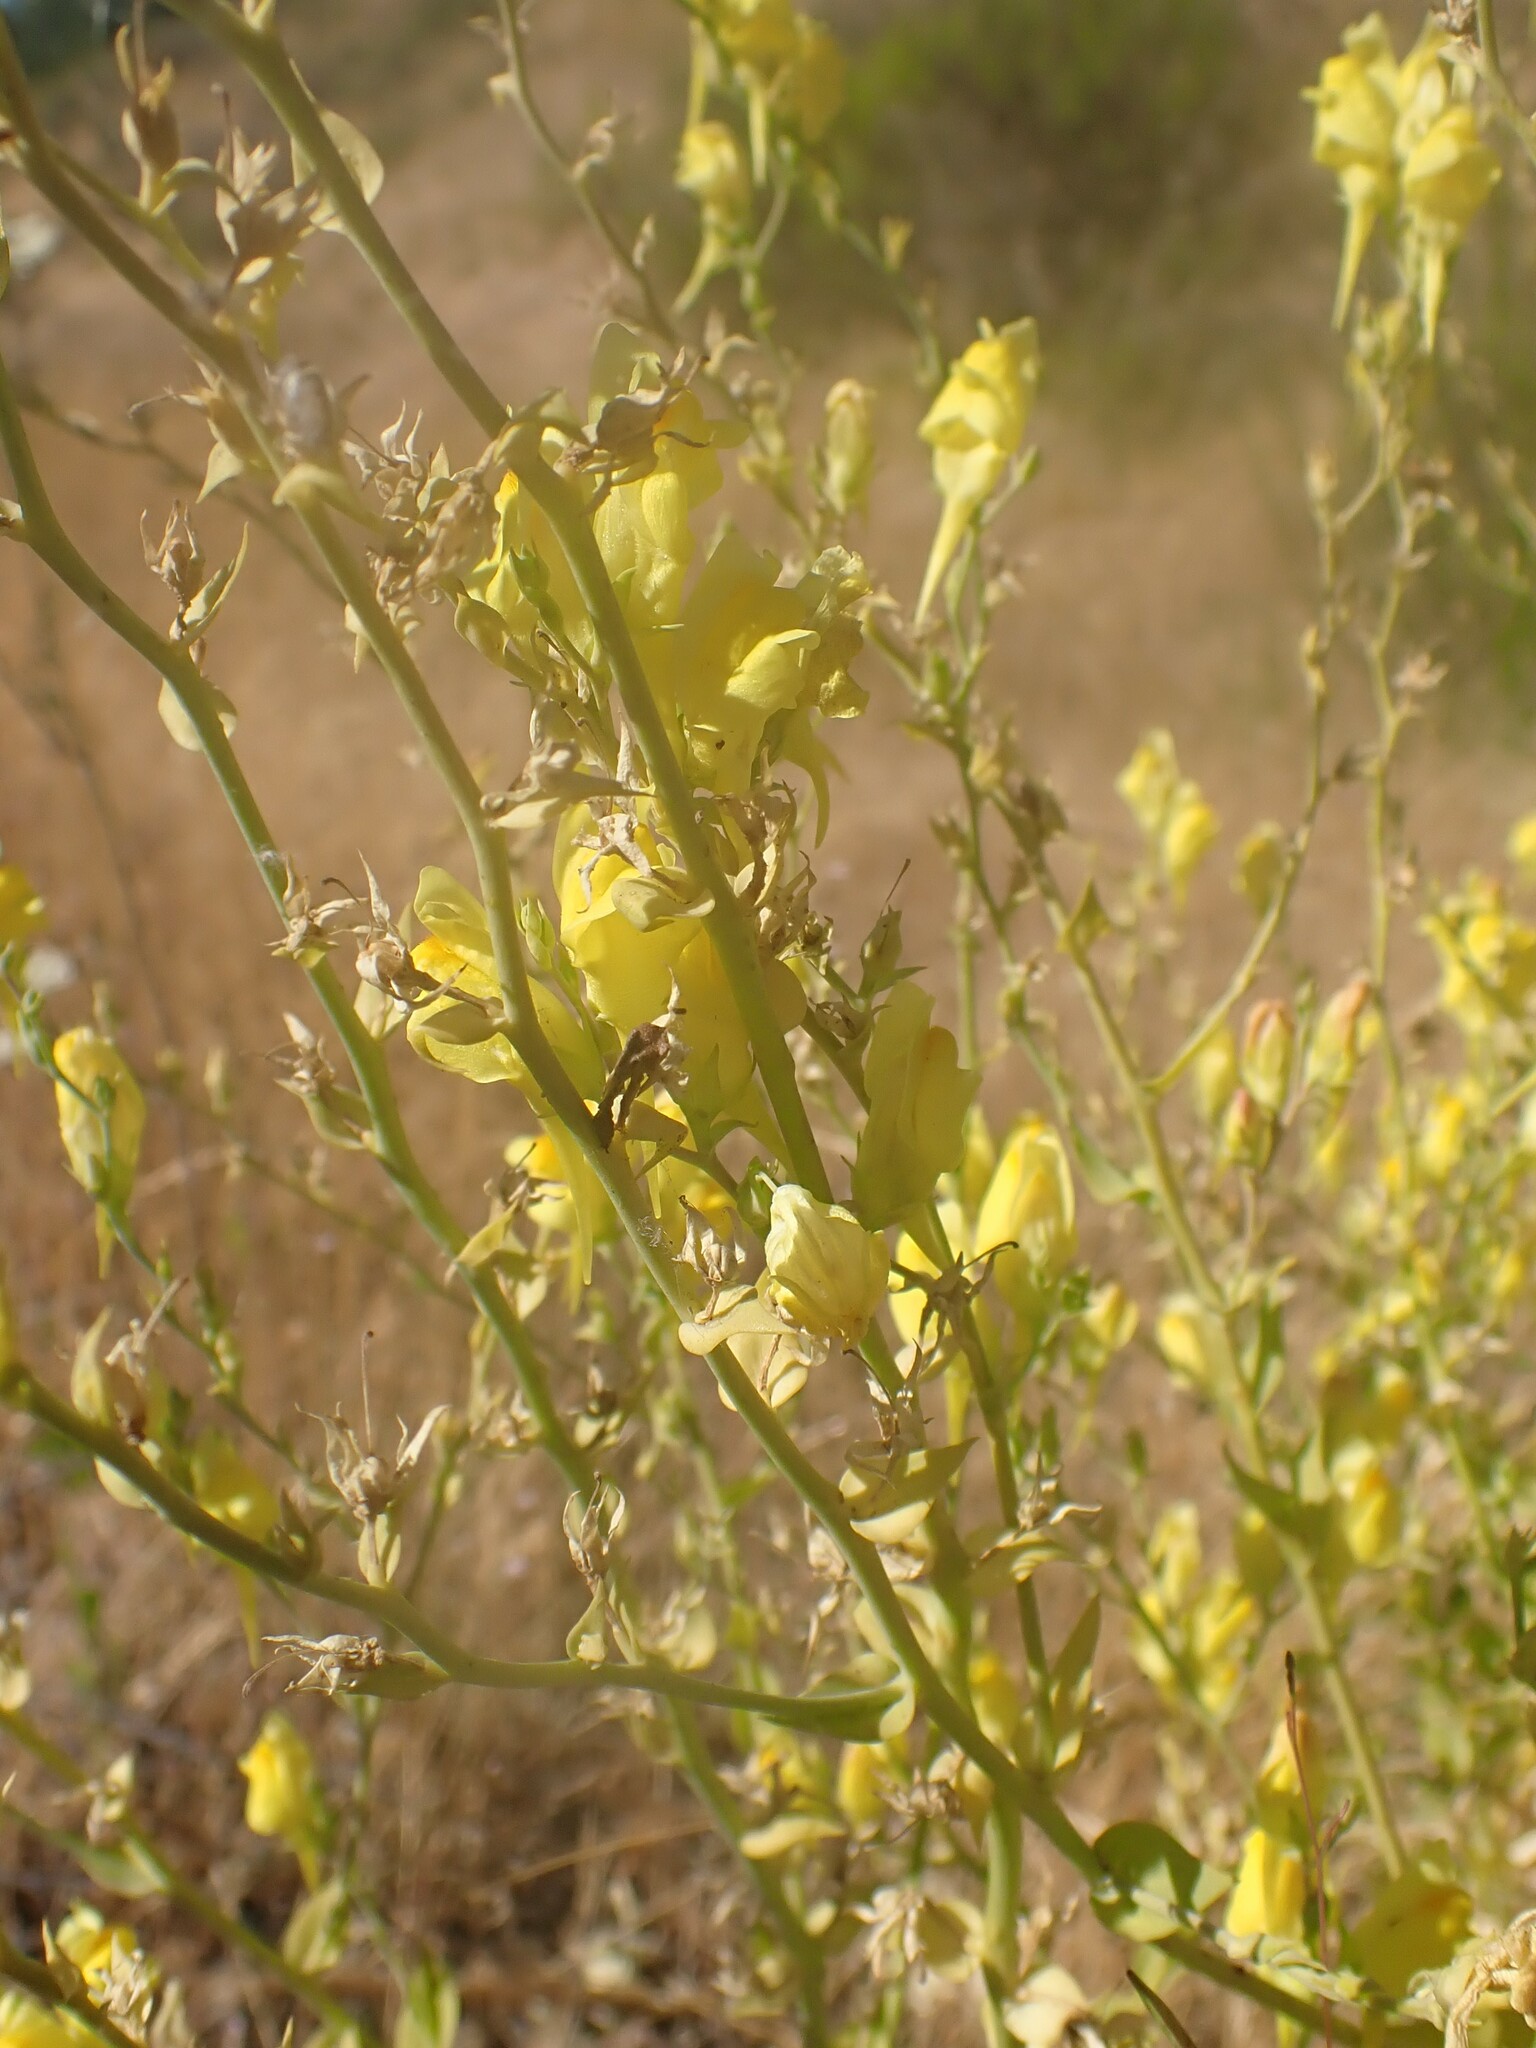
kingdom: Plantae
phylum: Tracheophyta
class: Magnoliopsida
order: Lamiales
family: Plantaginaceae
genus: Linaria
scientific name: Linaria dalmatica
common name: Dalmatian toadflax
